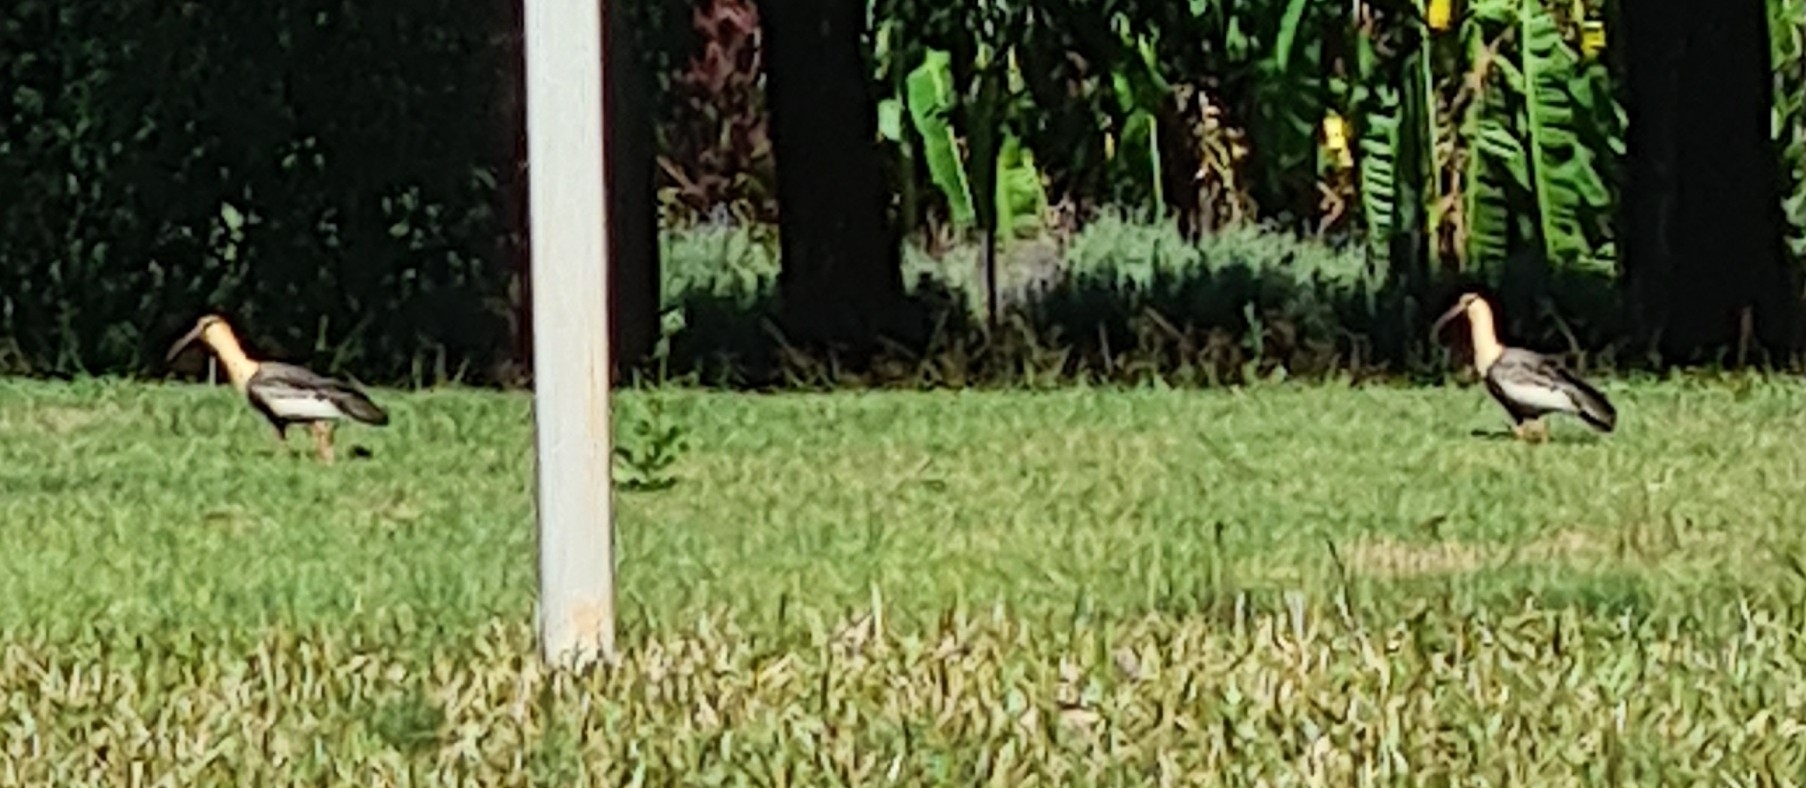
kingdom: Animalia
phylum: Chordata
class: Aves
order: Pelecaniformes
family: Threskiornithidae
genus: Theristicus
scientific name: Theristicus caudatus
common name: Buff-necked ibis
